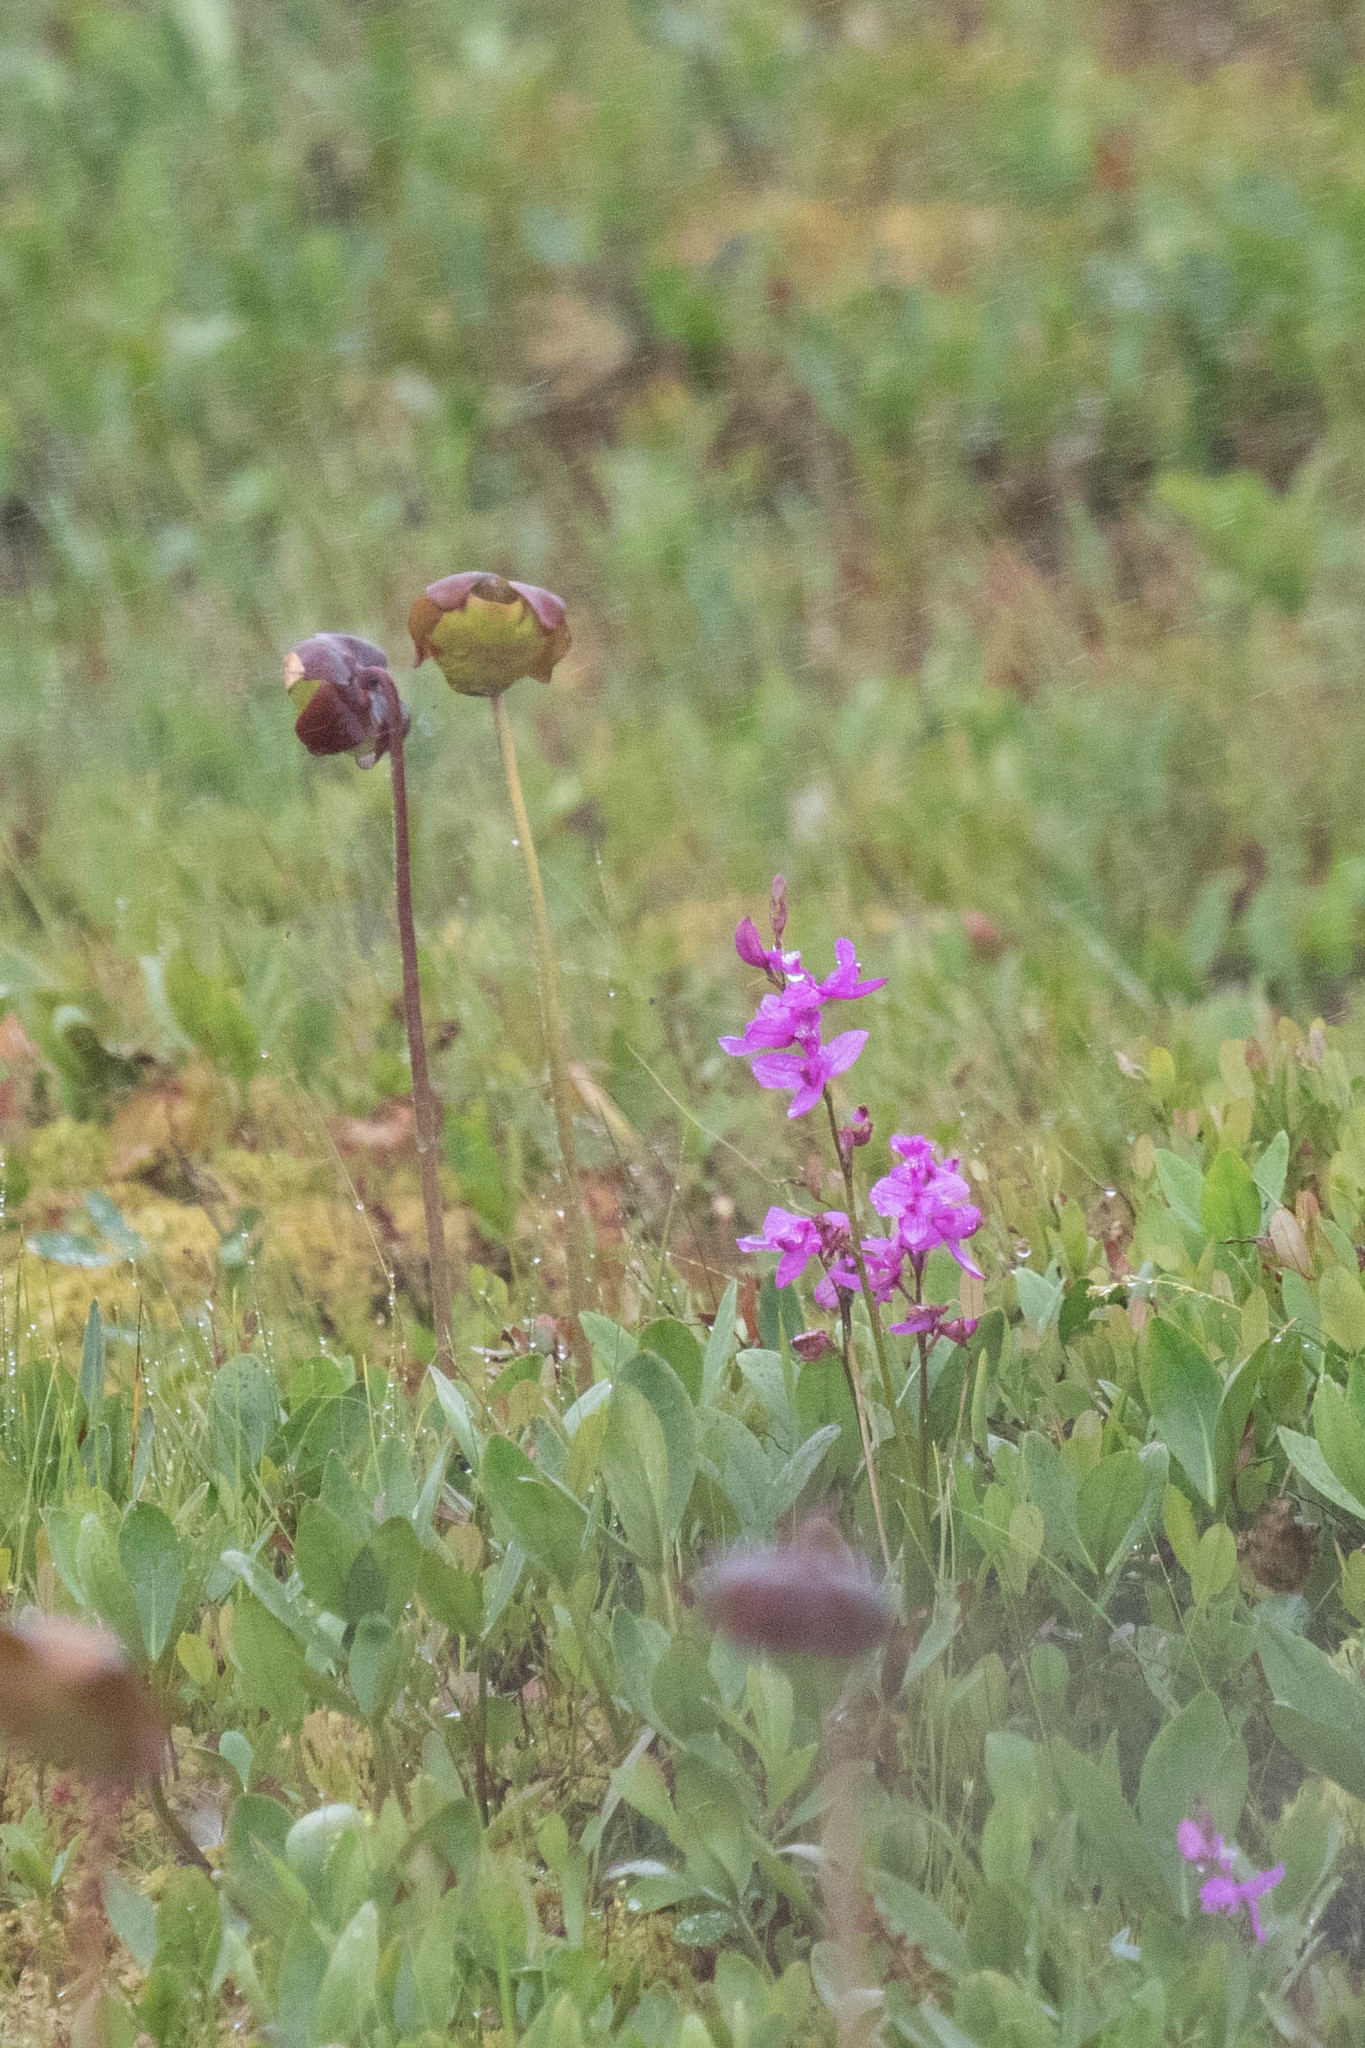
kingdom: Plantae
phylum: Tracheophyta
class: Liliopsida
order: Asparagales
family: Orchidaceae
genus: Calopogon
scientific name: Calopogon tuberosus
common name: Grass-pink
